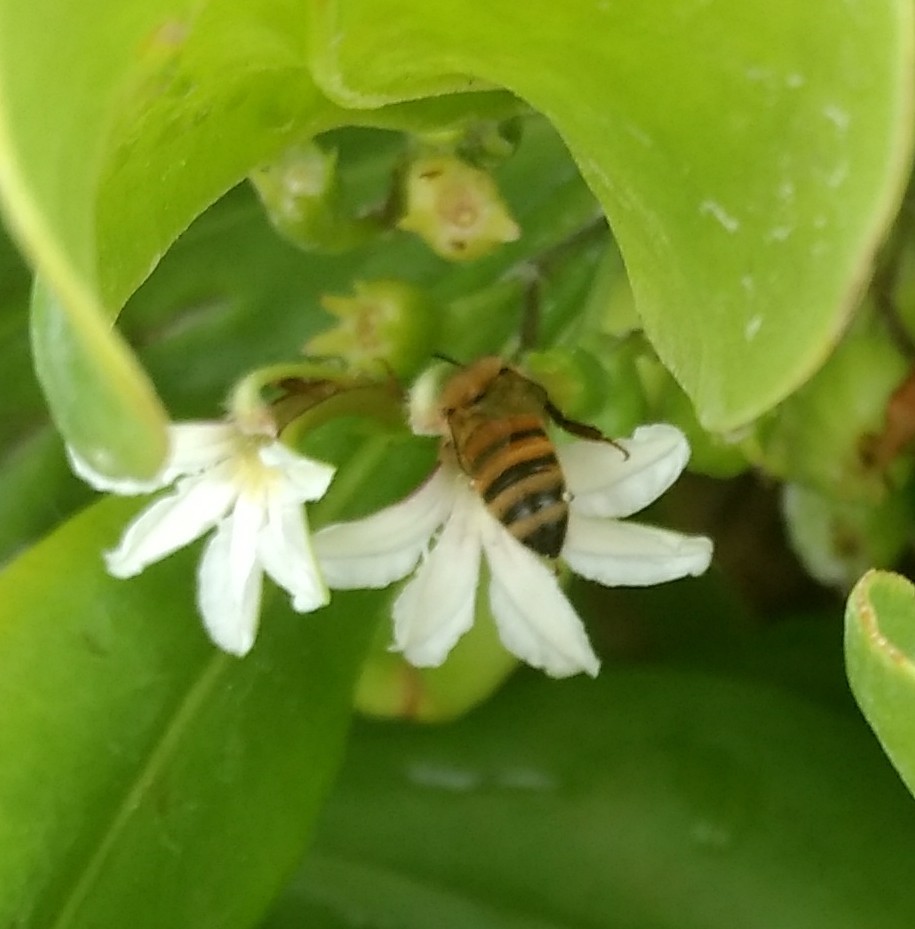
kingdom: Animalia
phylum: Arthropoda
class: Insecta
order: Hymenoptera
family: Apidae
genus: Apis
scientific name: Apis mellifera
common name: Honey bee
